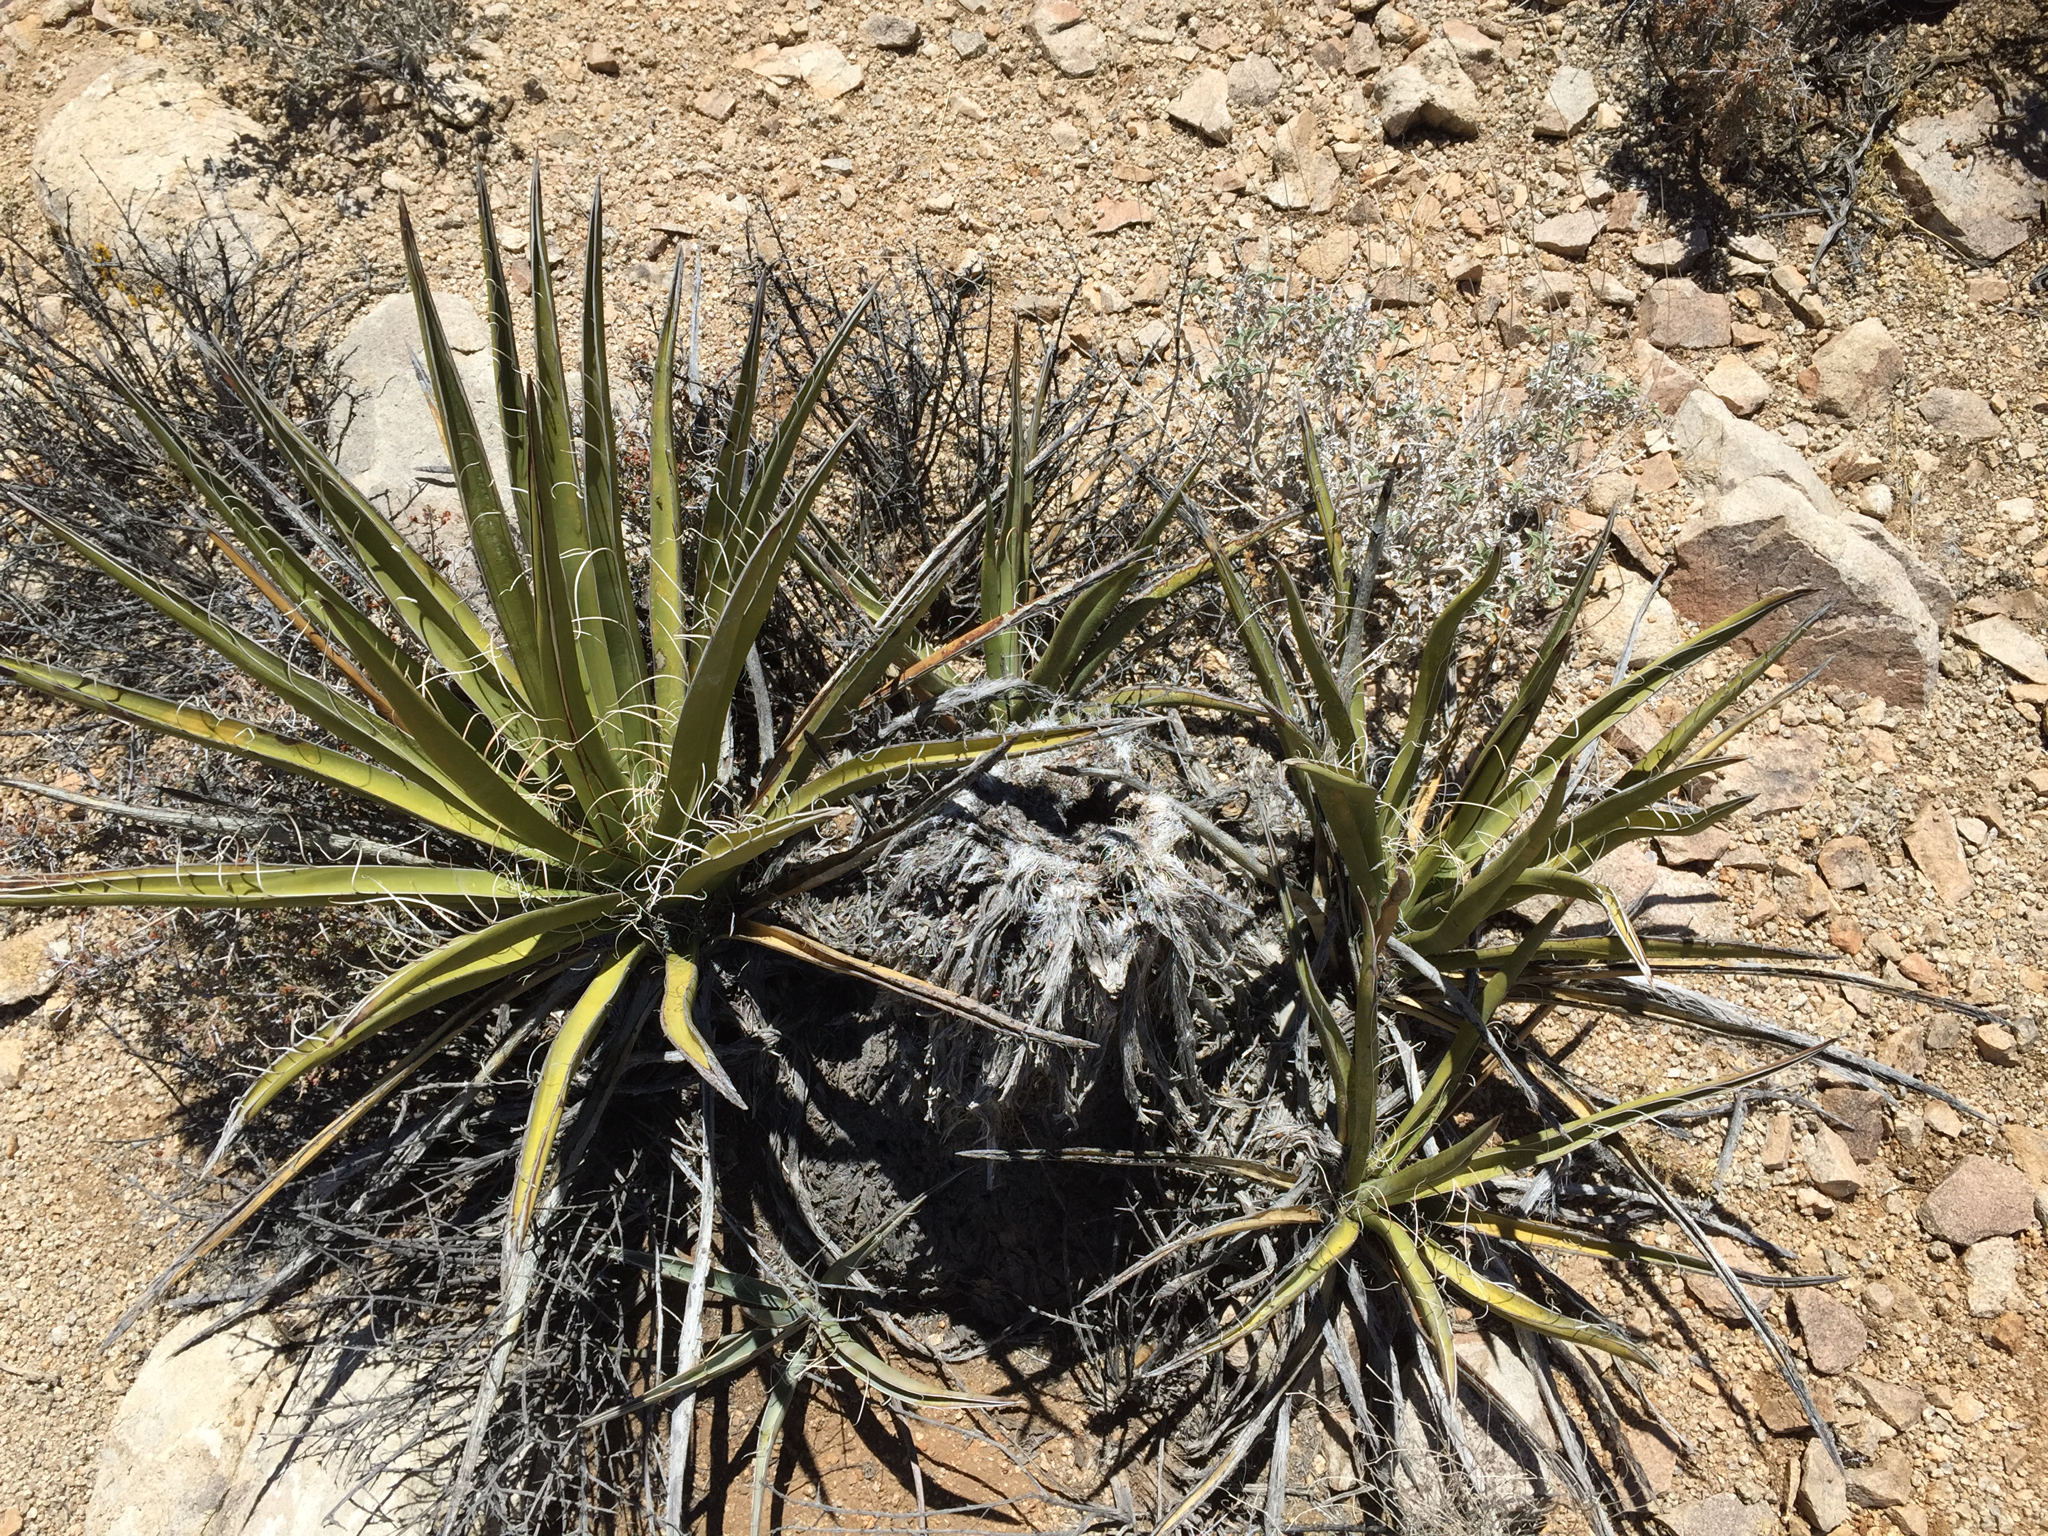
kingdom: Plantae
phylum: Tracheophyta
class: Liliopsida
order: Asparagales
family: Asparagaceae
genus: Yucca
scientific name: Yucca schidigera
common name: Mojave yucca
